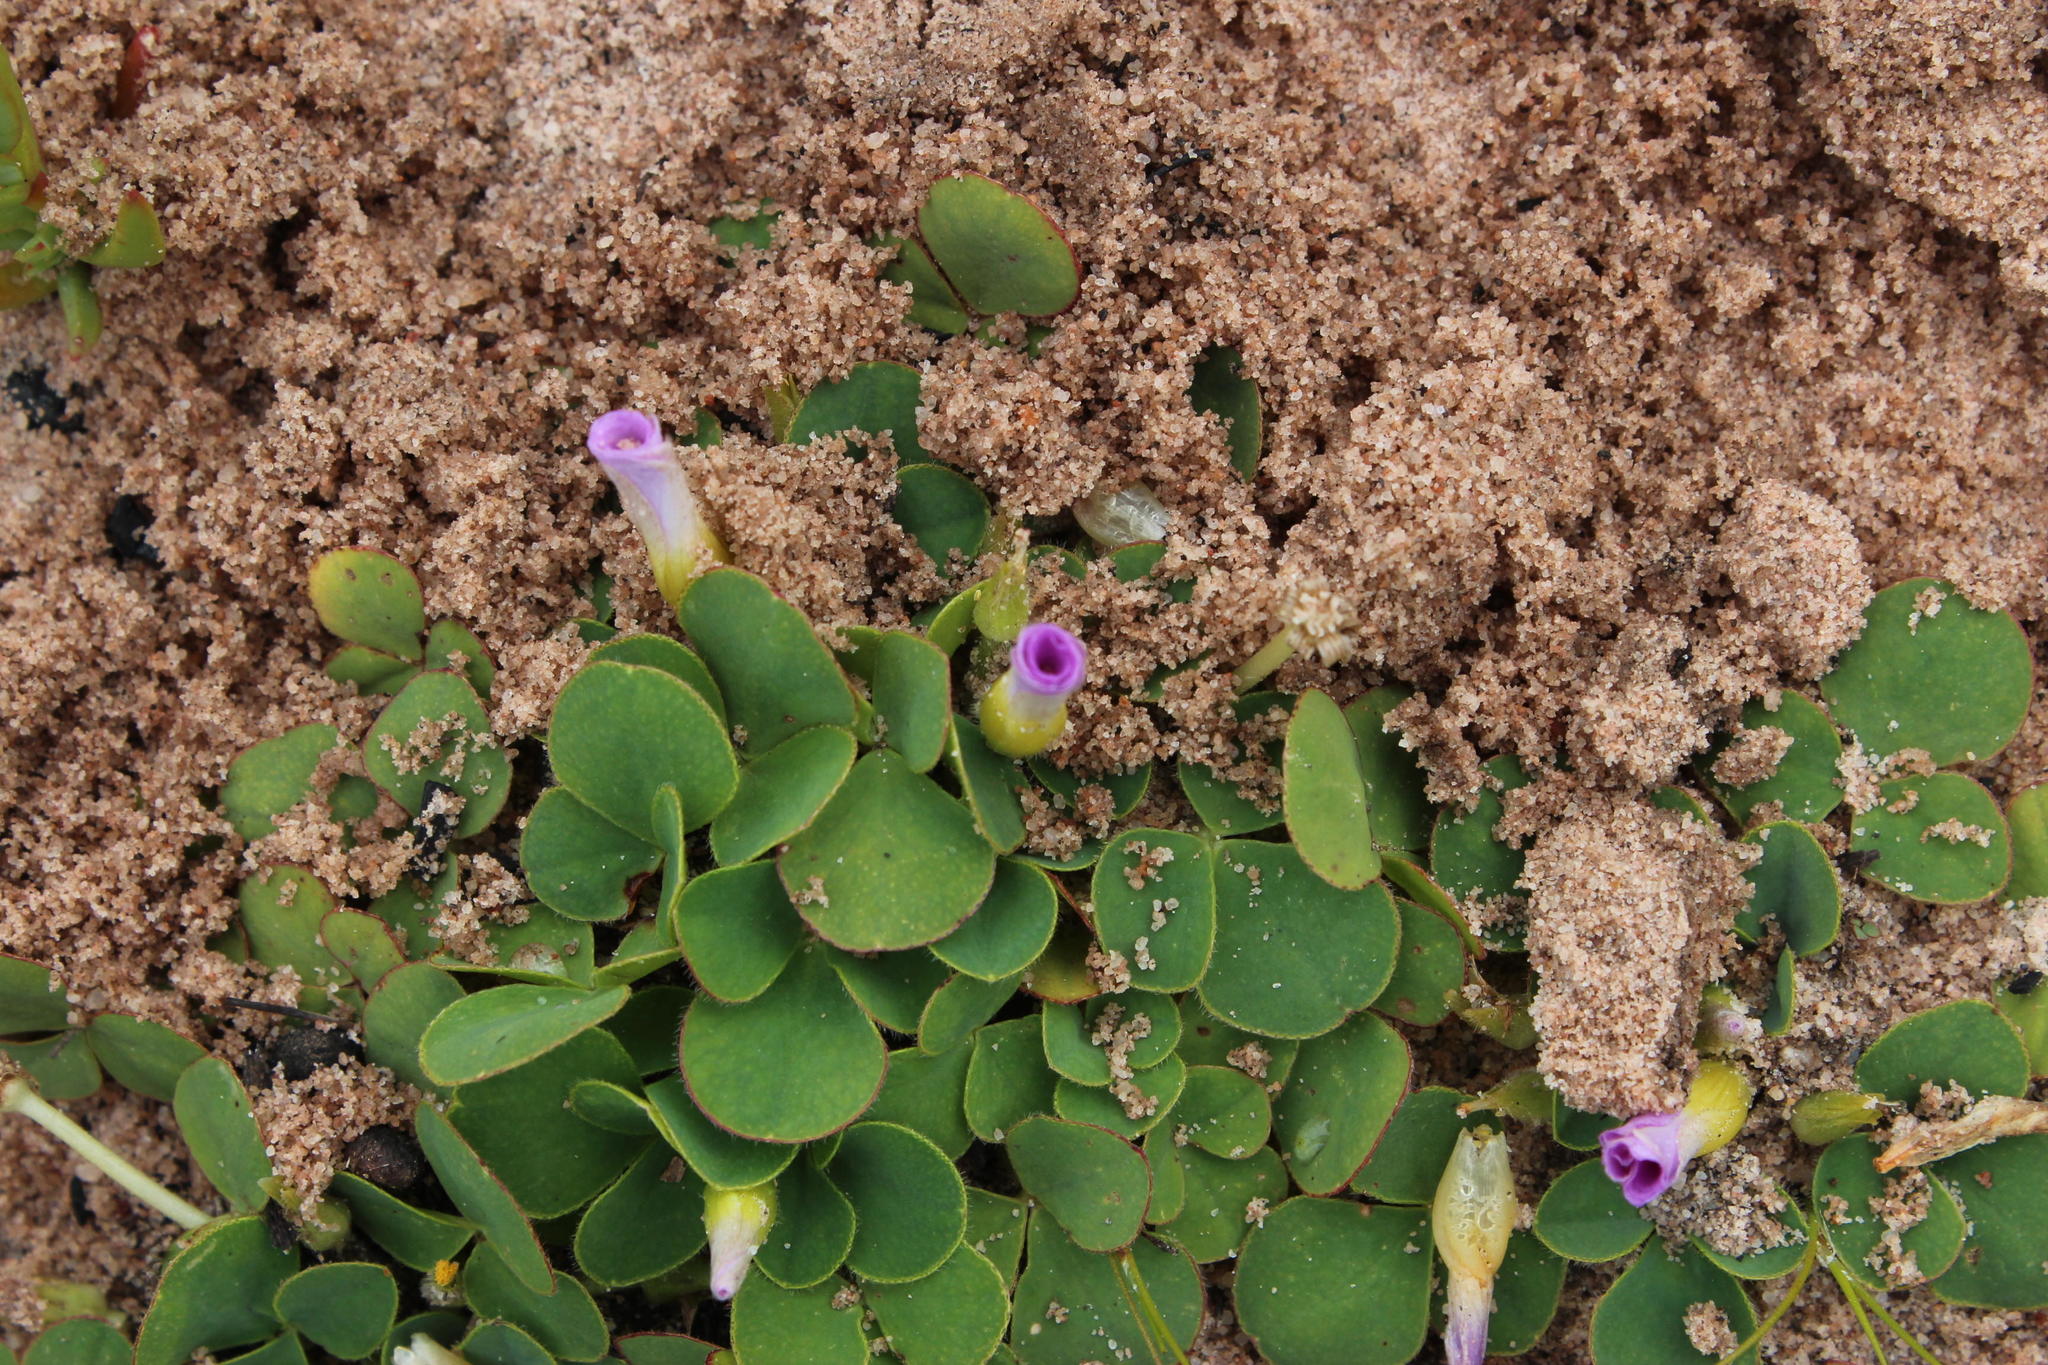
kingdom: Plantae
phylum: Tracheophyta
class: Magnoliopsida
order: Oxalidales
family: Oxalidaceae
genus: Oxalis
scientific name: Oxalis purpurea
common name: Purple woodsorrel
